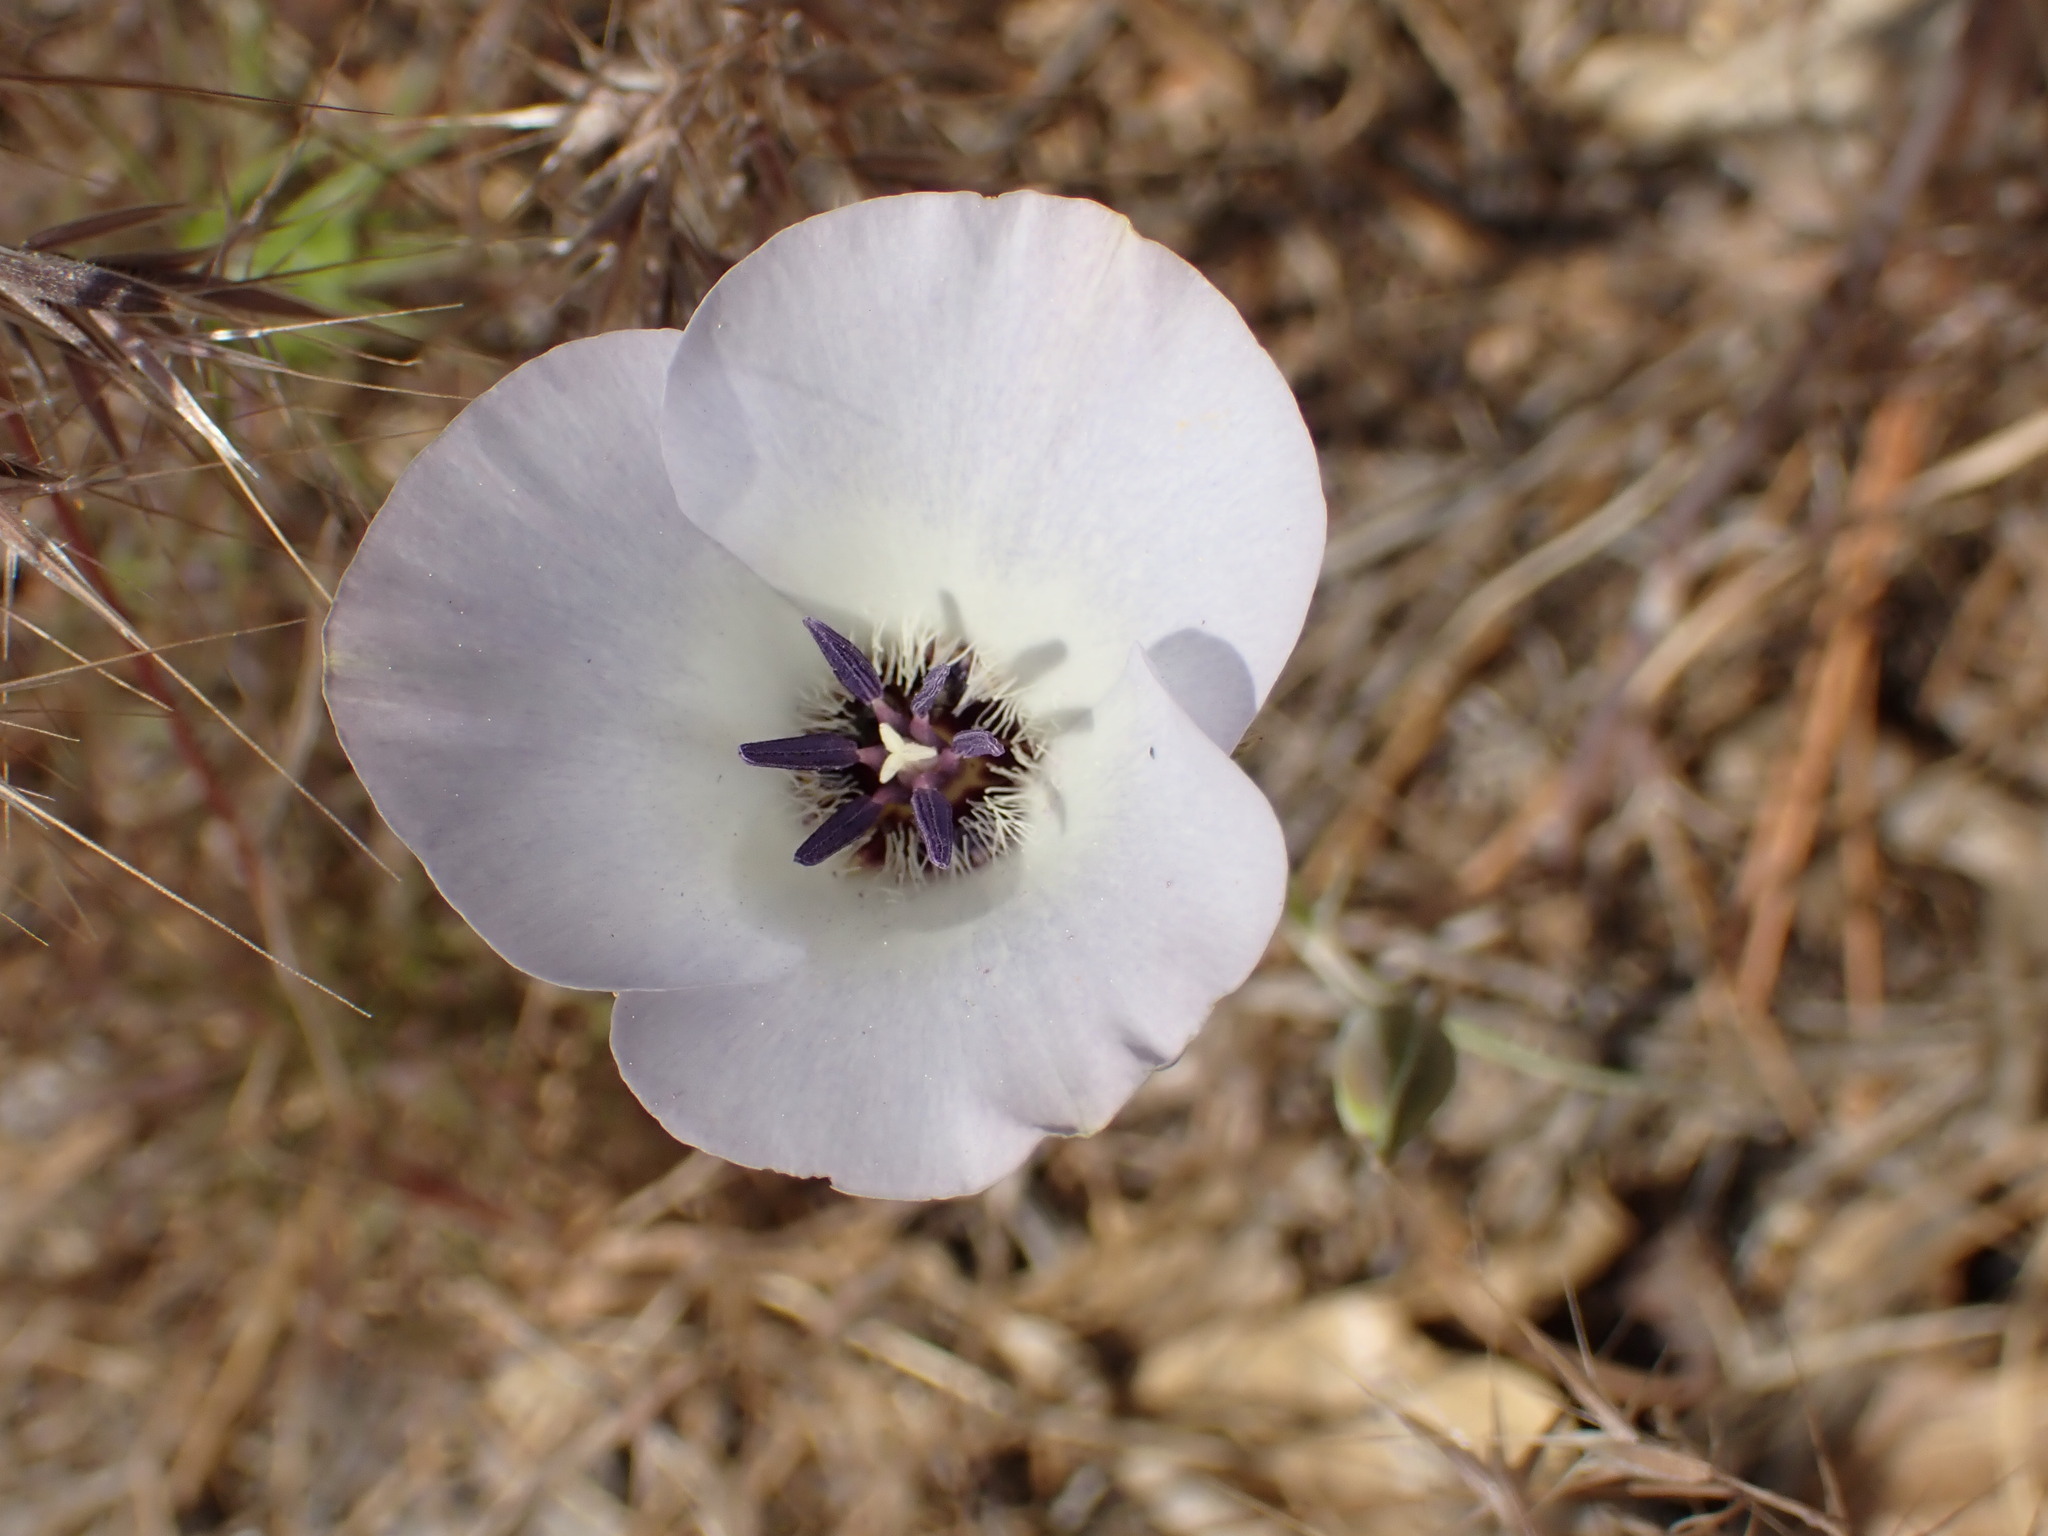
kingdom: Plantae
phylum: Tracheophyta
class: Liliopsida
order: Liliales
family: Liliaceae
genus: Calochortus
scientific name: Calochortus invenustus
